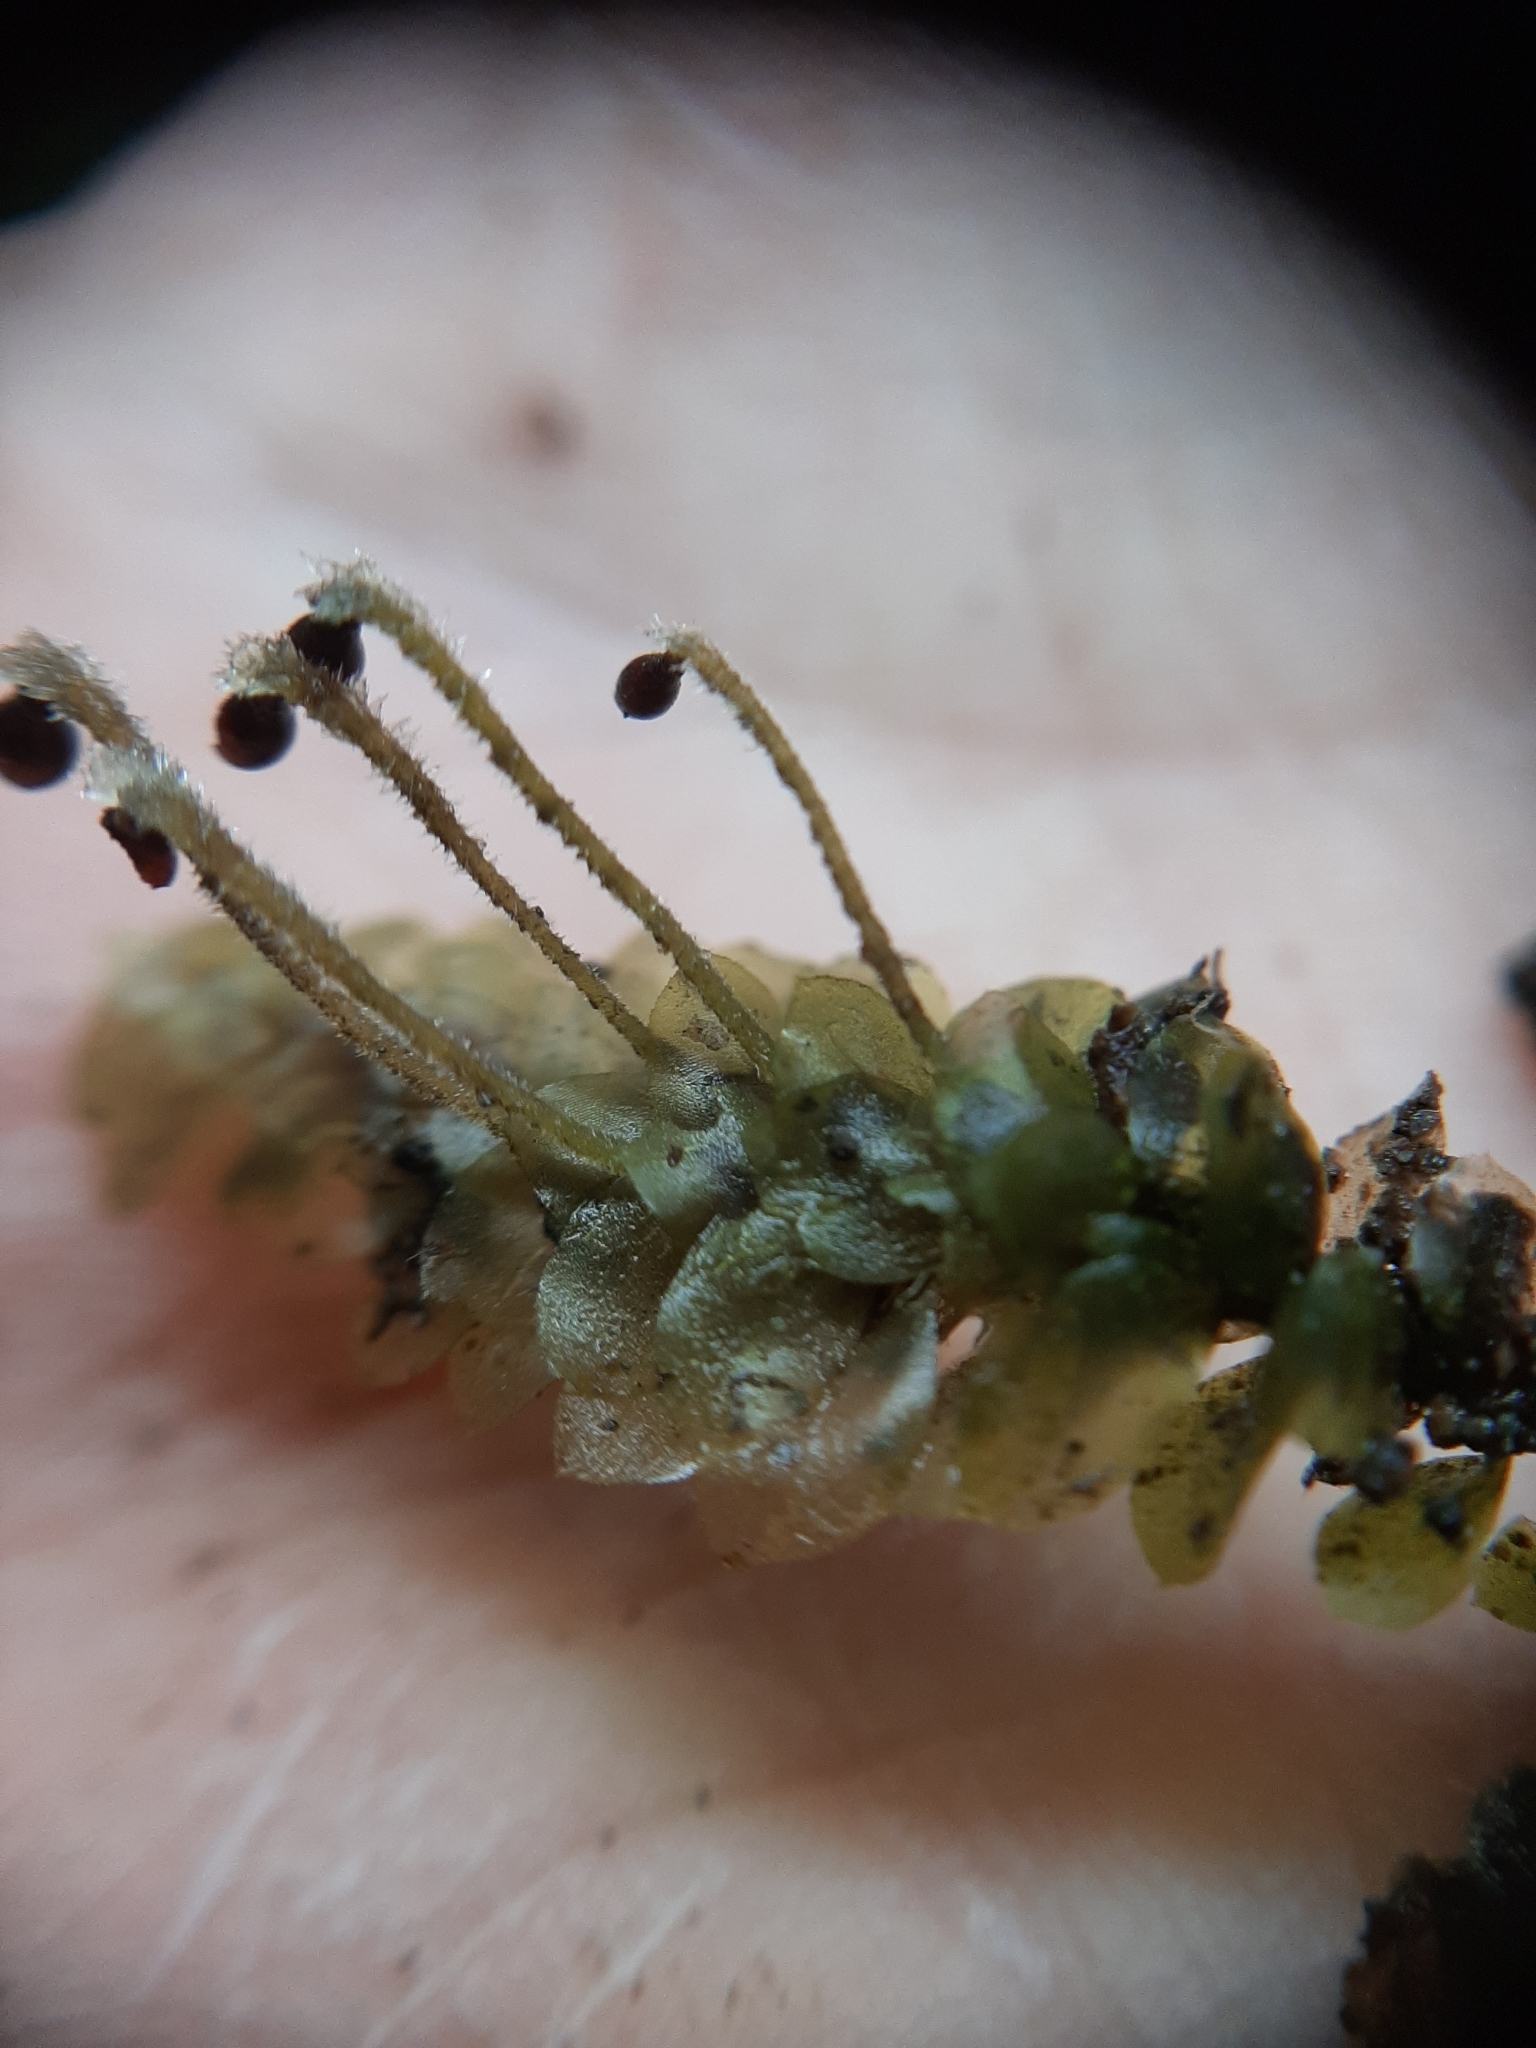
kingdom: Plantae
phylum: Bryophyta
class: Bryopsida
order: Hookeriales
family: Daltoniaceae
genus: Calyptrochaeta
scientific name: Calyptrochaeta cristata
